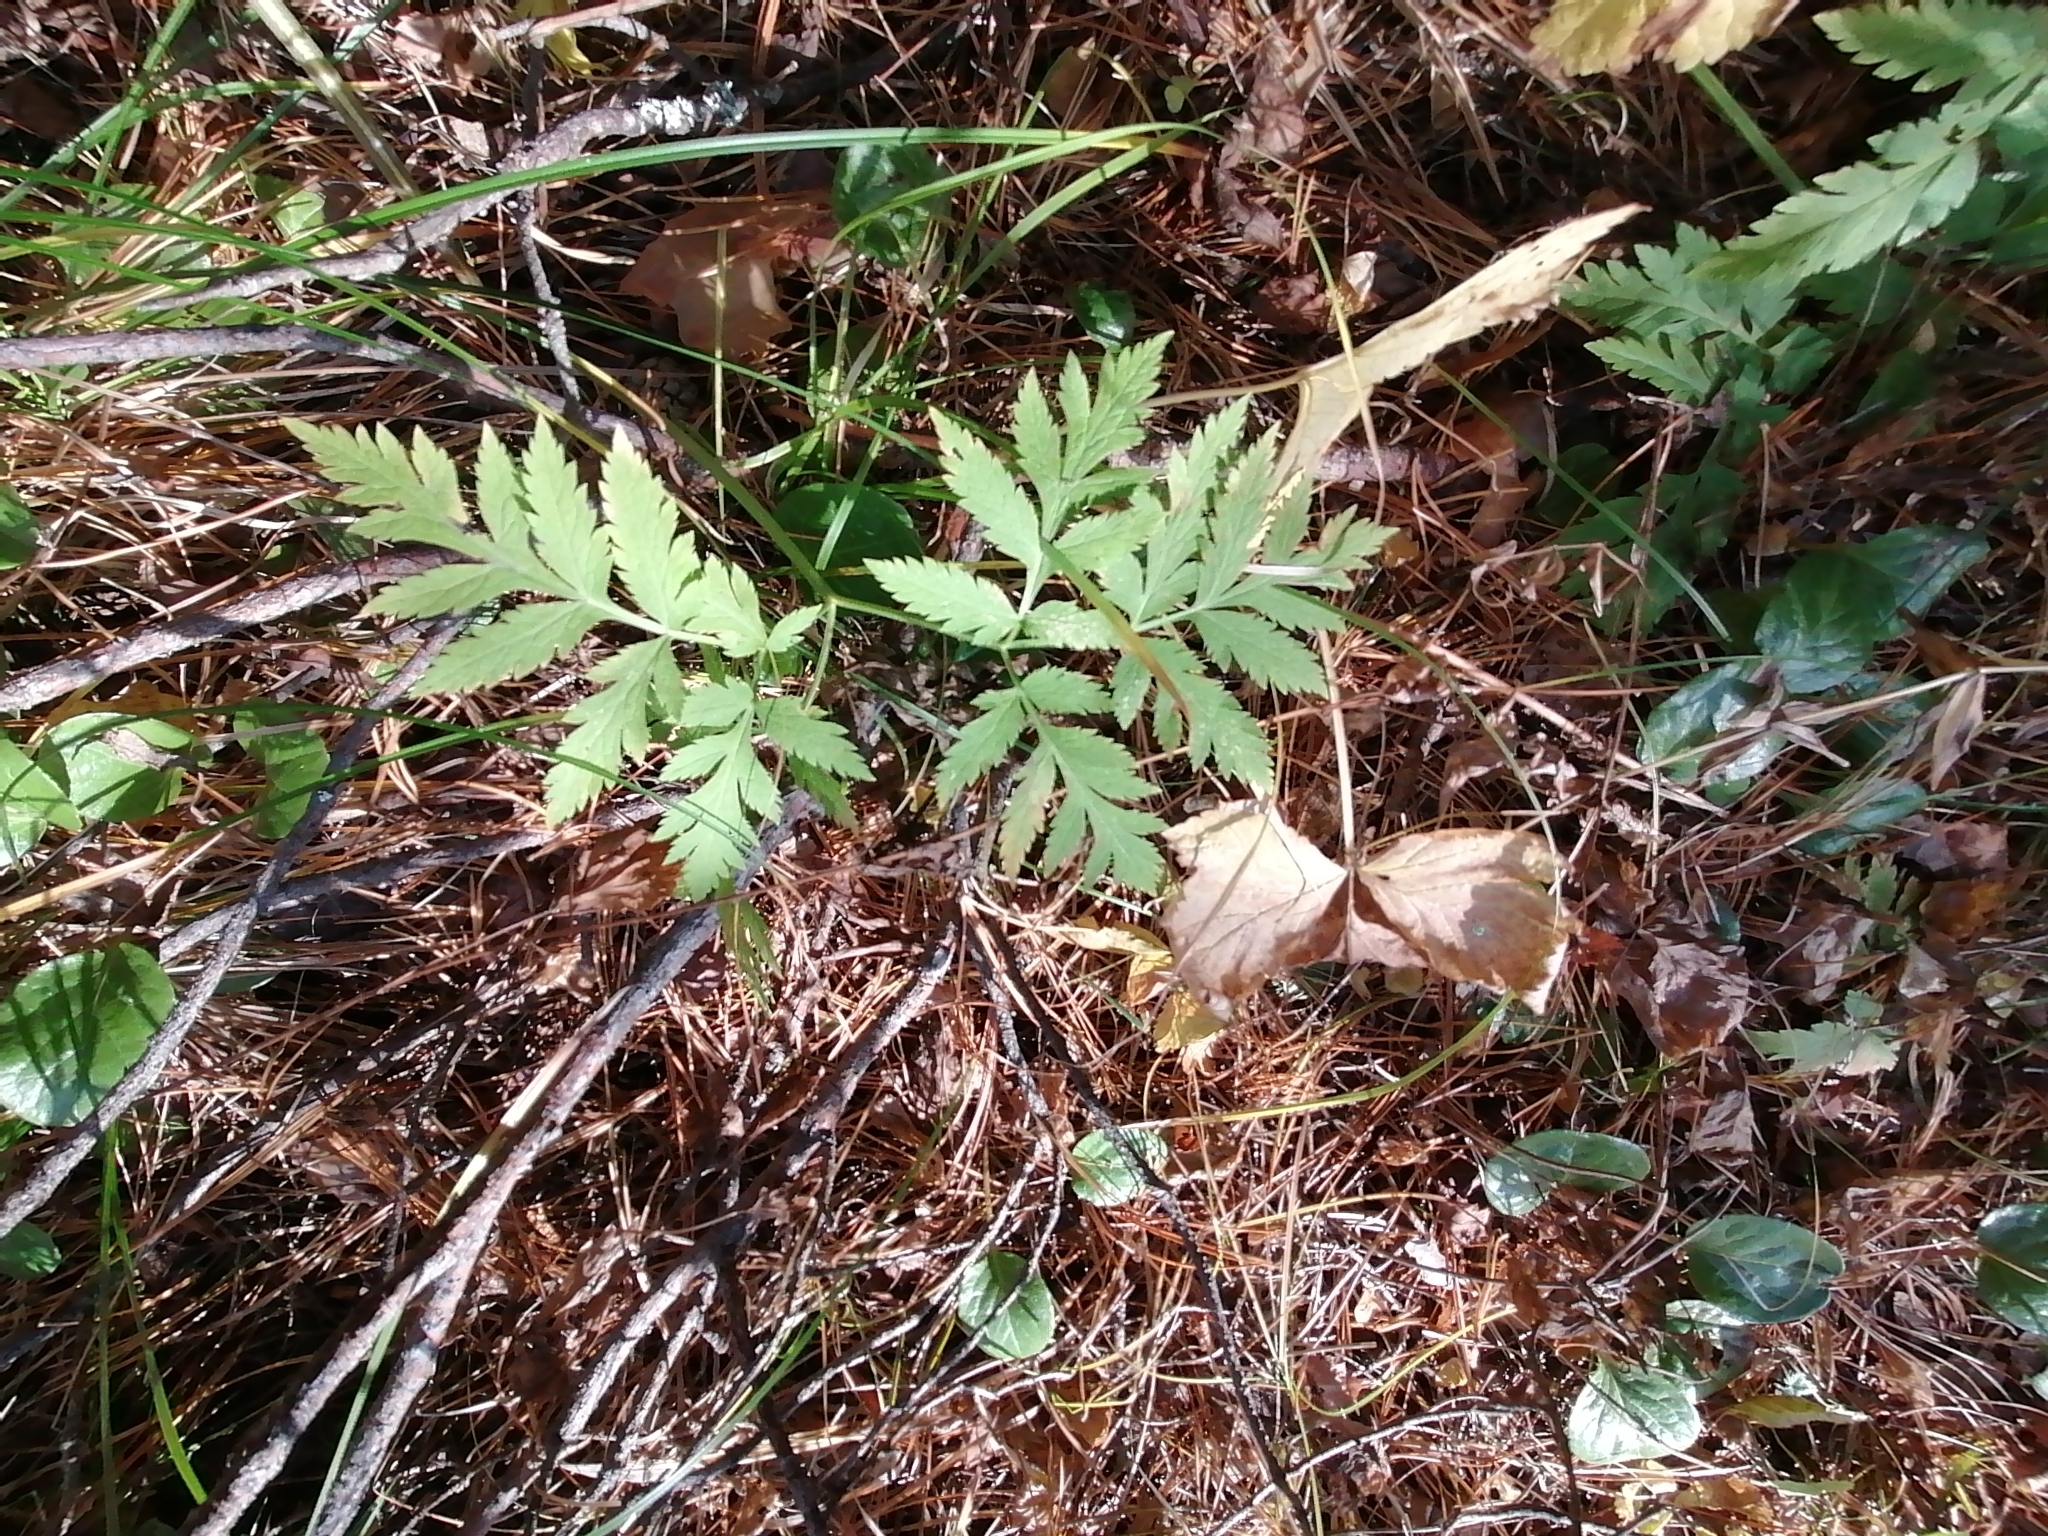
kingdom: Plantae
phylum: Tracheophyta
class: Magnoliopsida
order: Apiales
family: Apiaceae
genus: Pleurospermum
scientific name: Pleurospermum uralense
